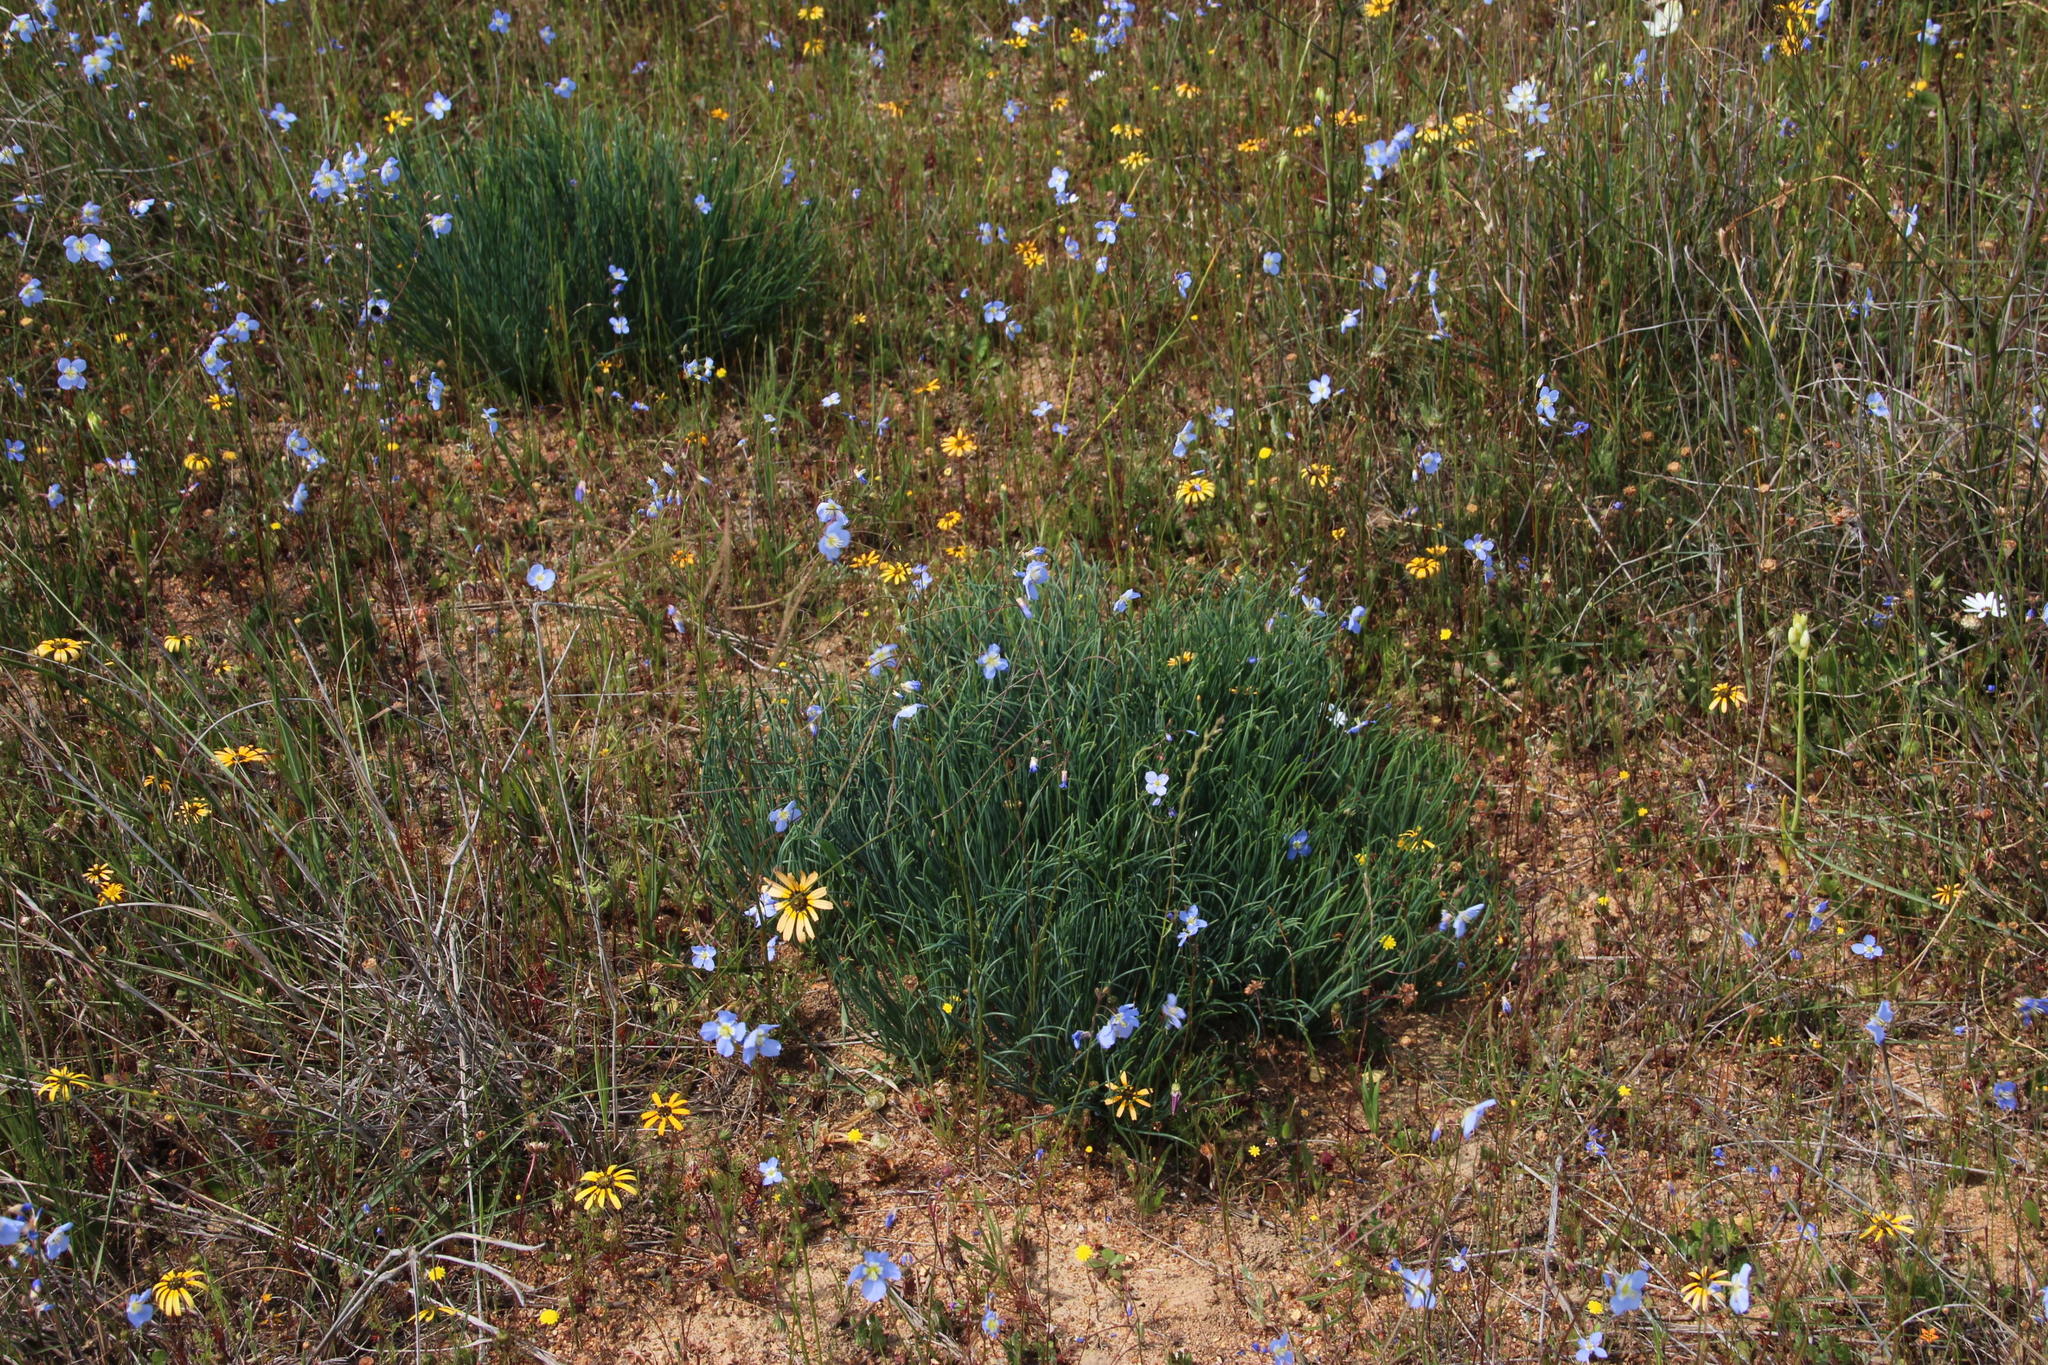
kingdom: Plantae
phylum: Tracheophyta
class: Magnoliopsida
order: Brassicales
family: Brassicaceae
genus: Heliophila
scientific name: Heliophila coronopifolia
